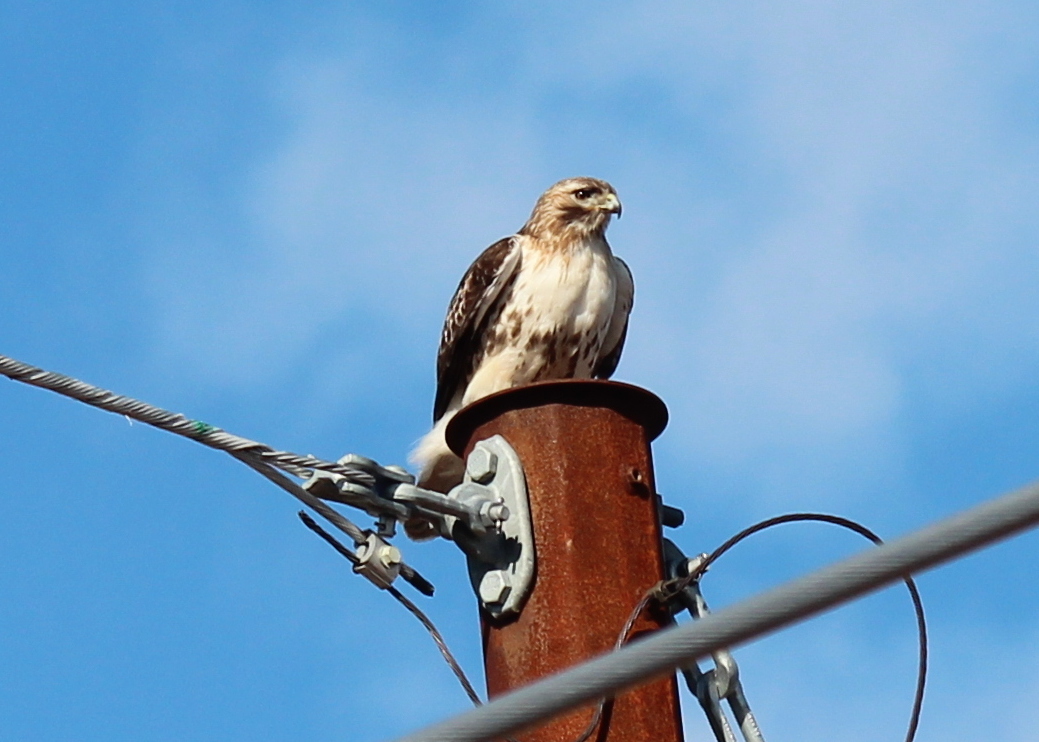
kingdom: Animalia
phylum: Chordata
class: Aves
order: Accipitriformes
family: Accipitridae
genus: Buteo
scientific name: Buteo jamaicensis
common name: Red-tailed hawk
